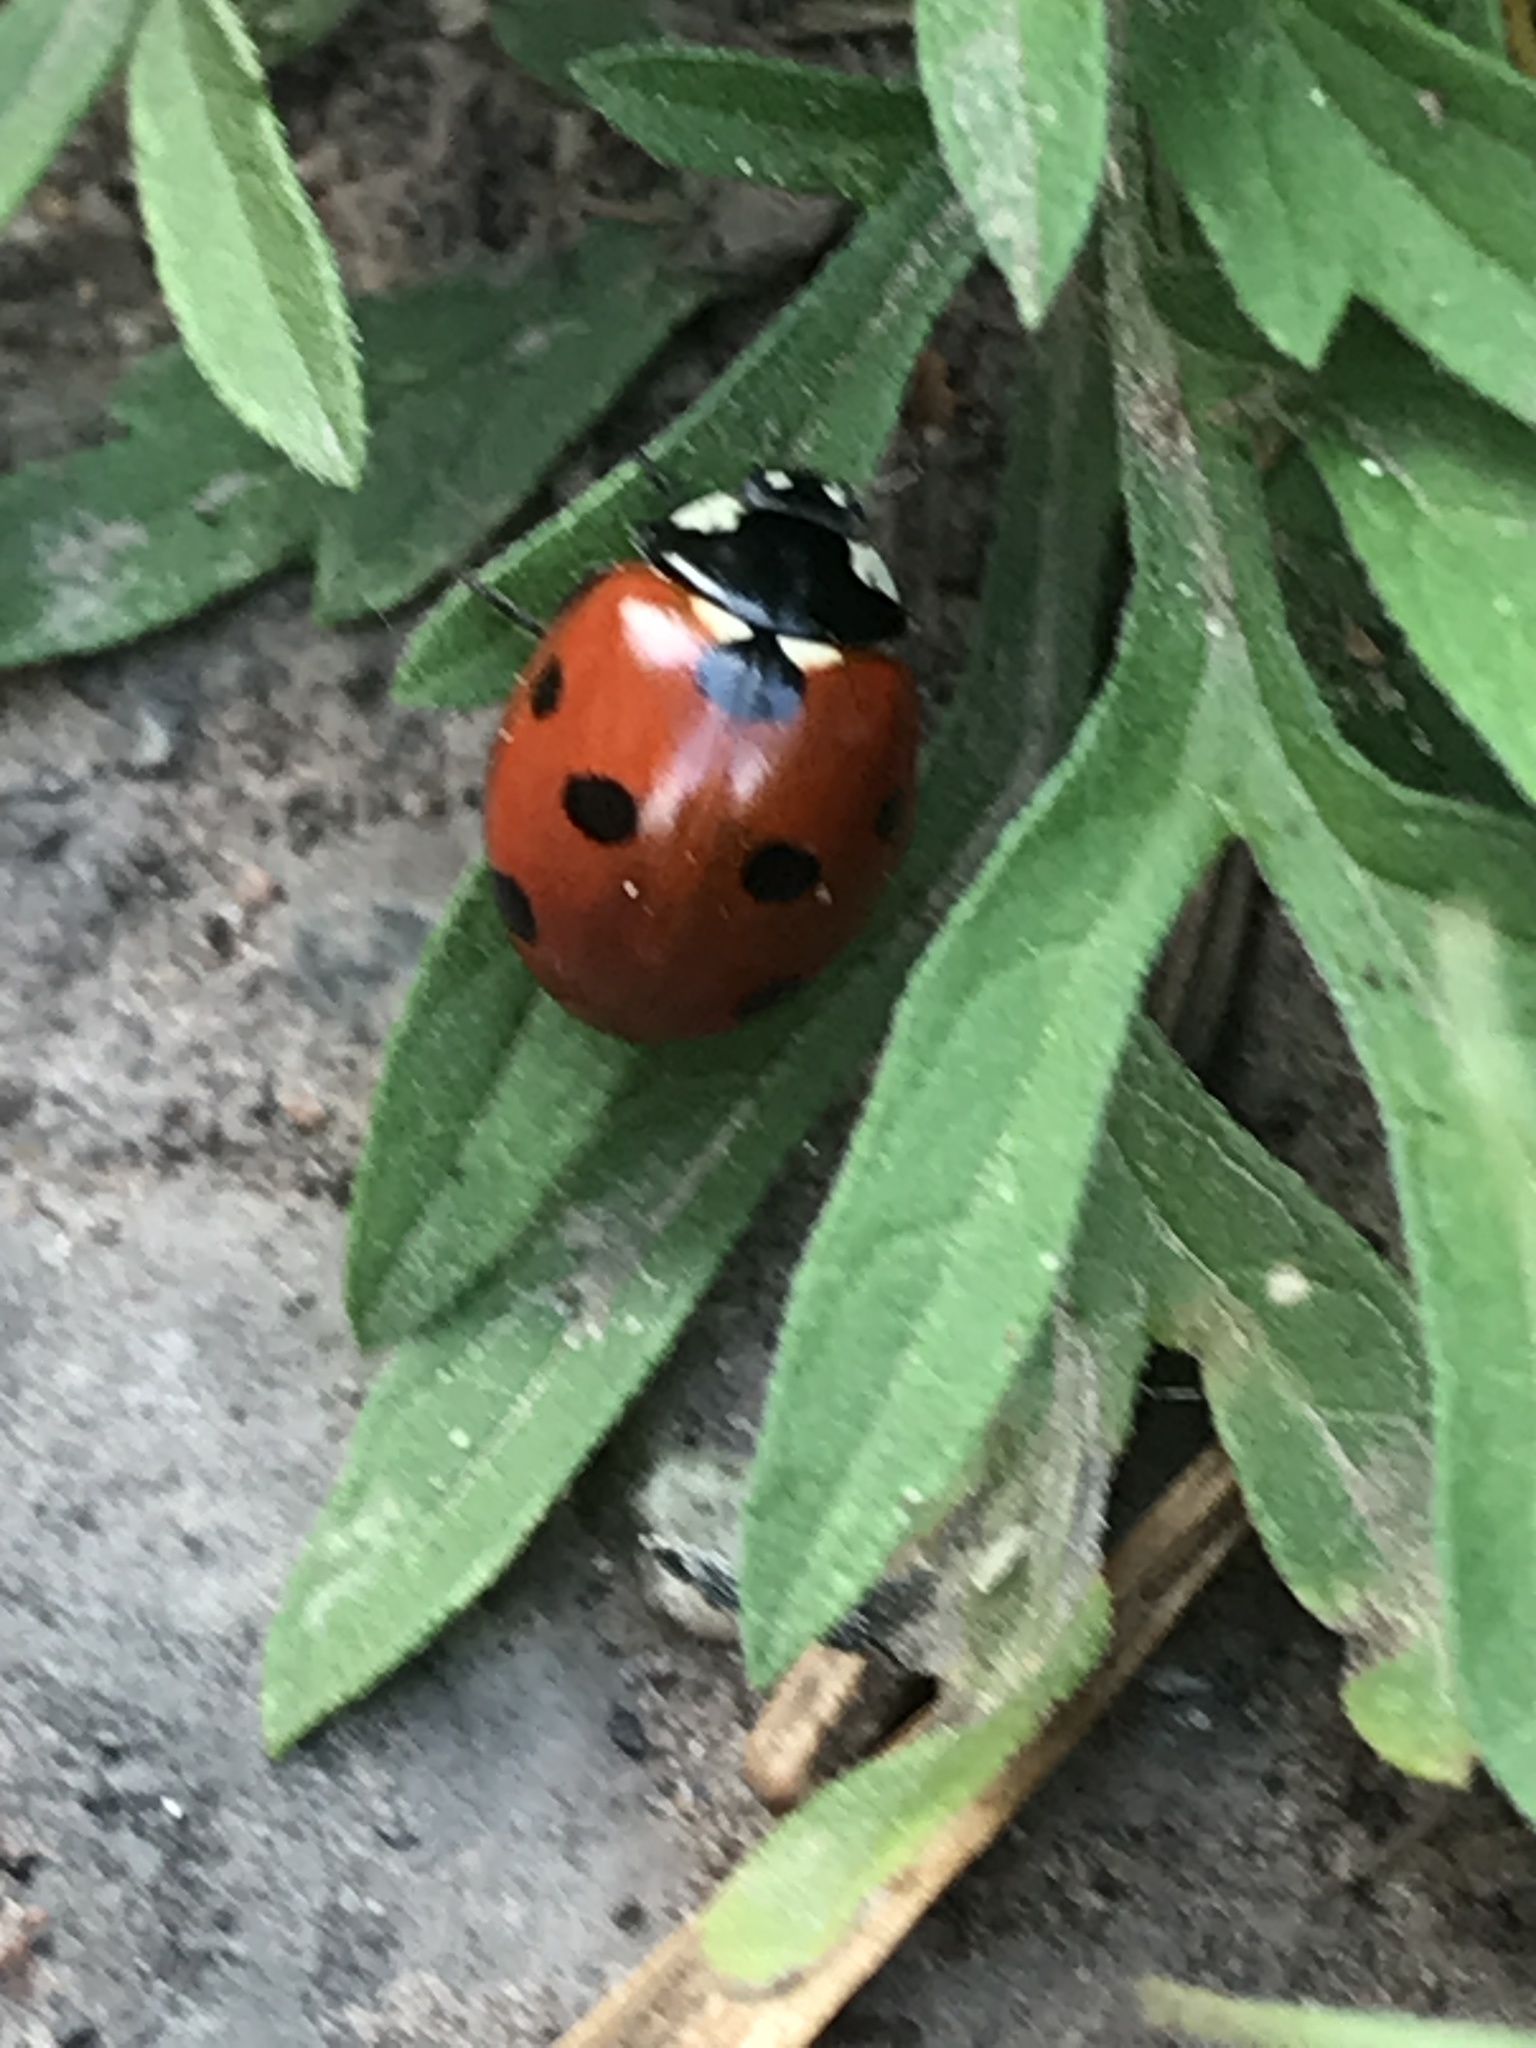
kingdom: Animalia
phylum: Arthropoda
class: Insecta
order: Coleoptera
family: Coccinellidae
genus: Coccinella
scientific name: Coccinella septempunctata
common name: Sevenspotted lady beetle
